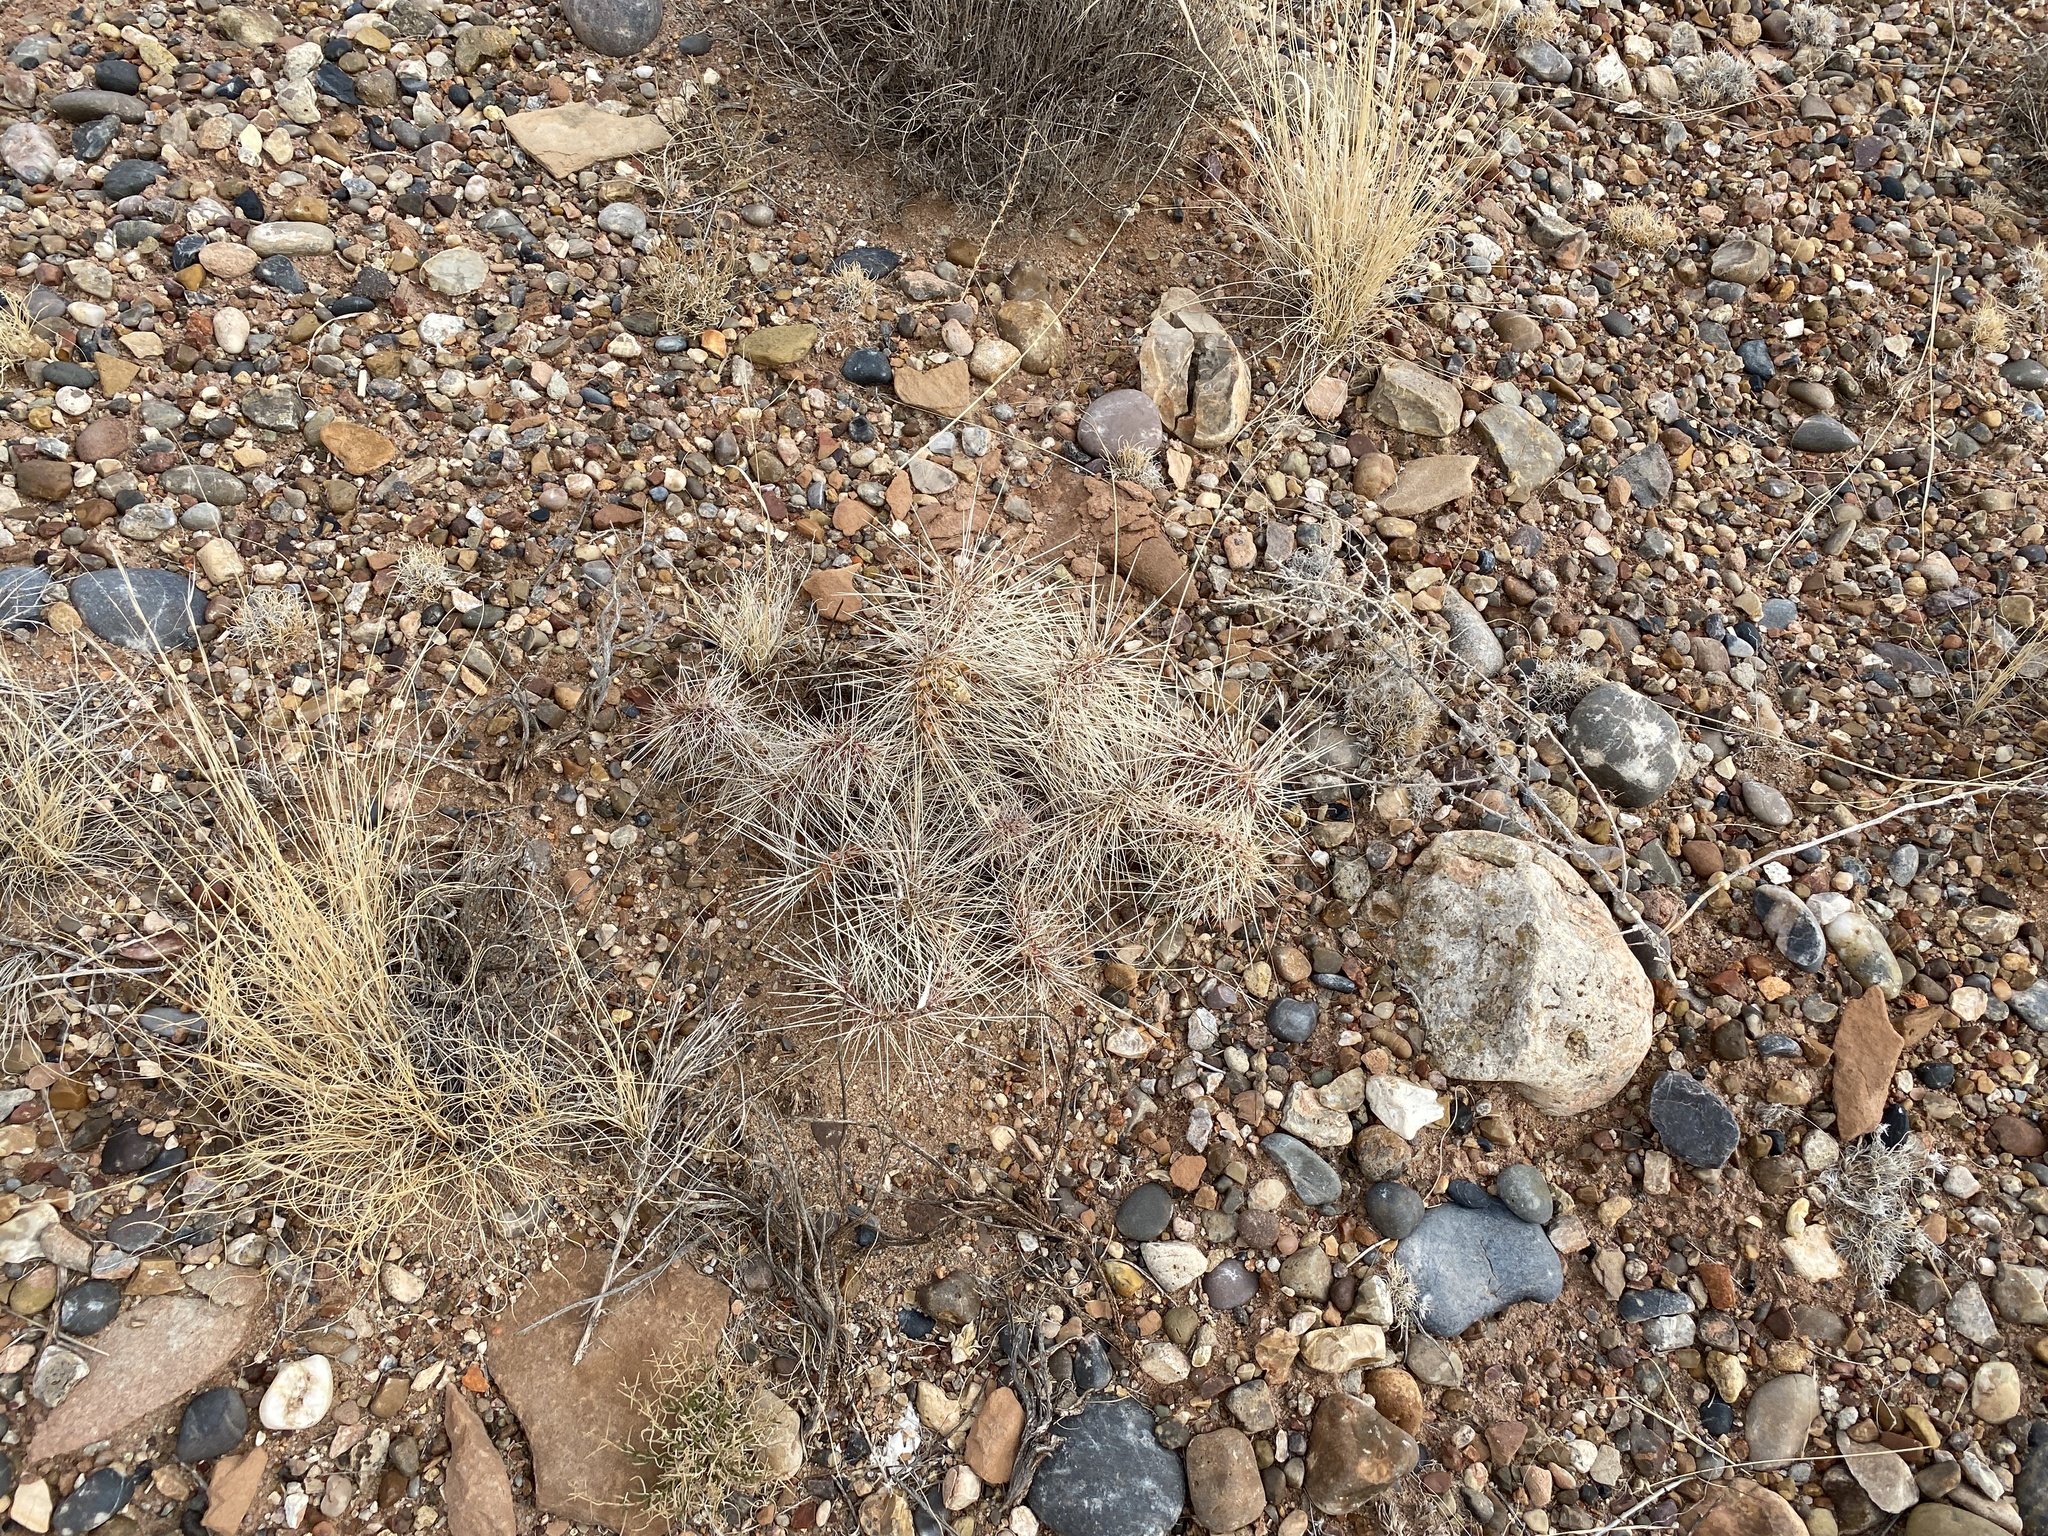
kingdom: Plantae
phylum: Tracheophyta
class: Magnoliopsida
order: Caryophyllales
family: Cactaceae
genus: Opuntia
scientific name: Opuntia polyacantha
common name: Plains prickly-pear
